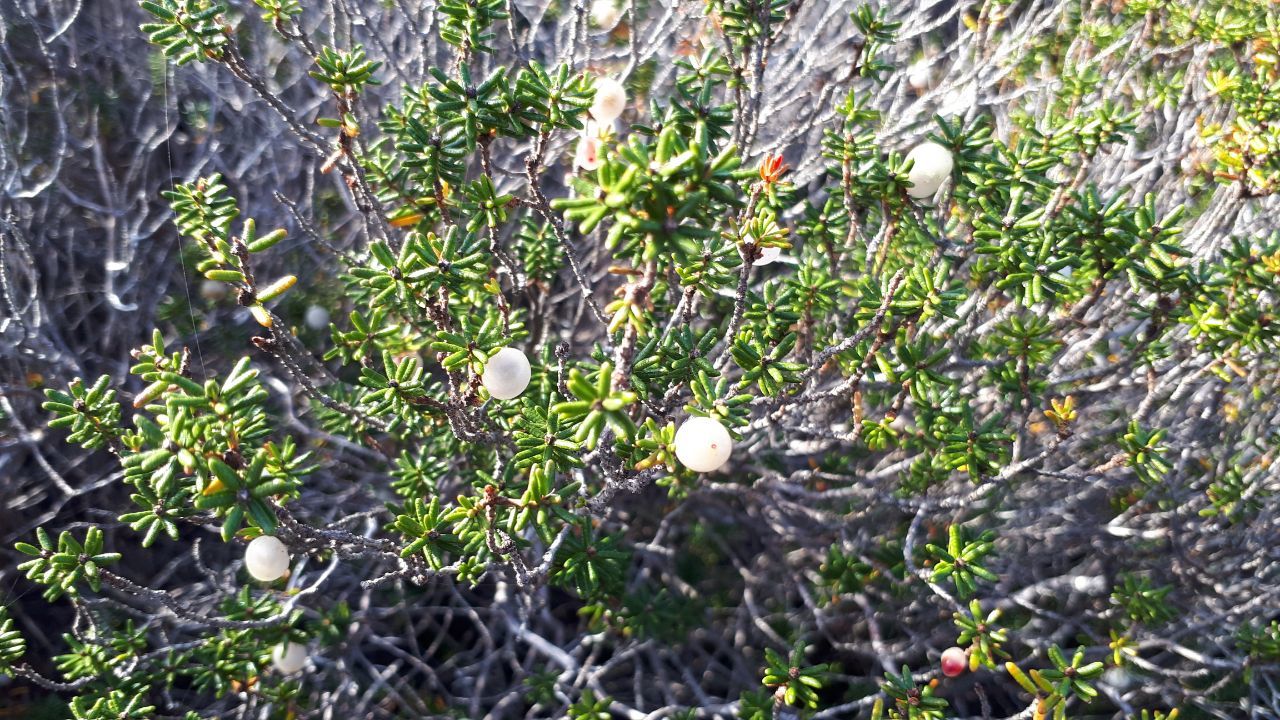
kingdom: Plantae
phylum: Tracheophyta
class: Magnoliopsida
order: Ericales
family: Ericaceae
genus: Corema
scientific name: Corema album
